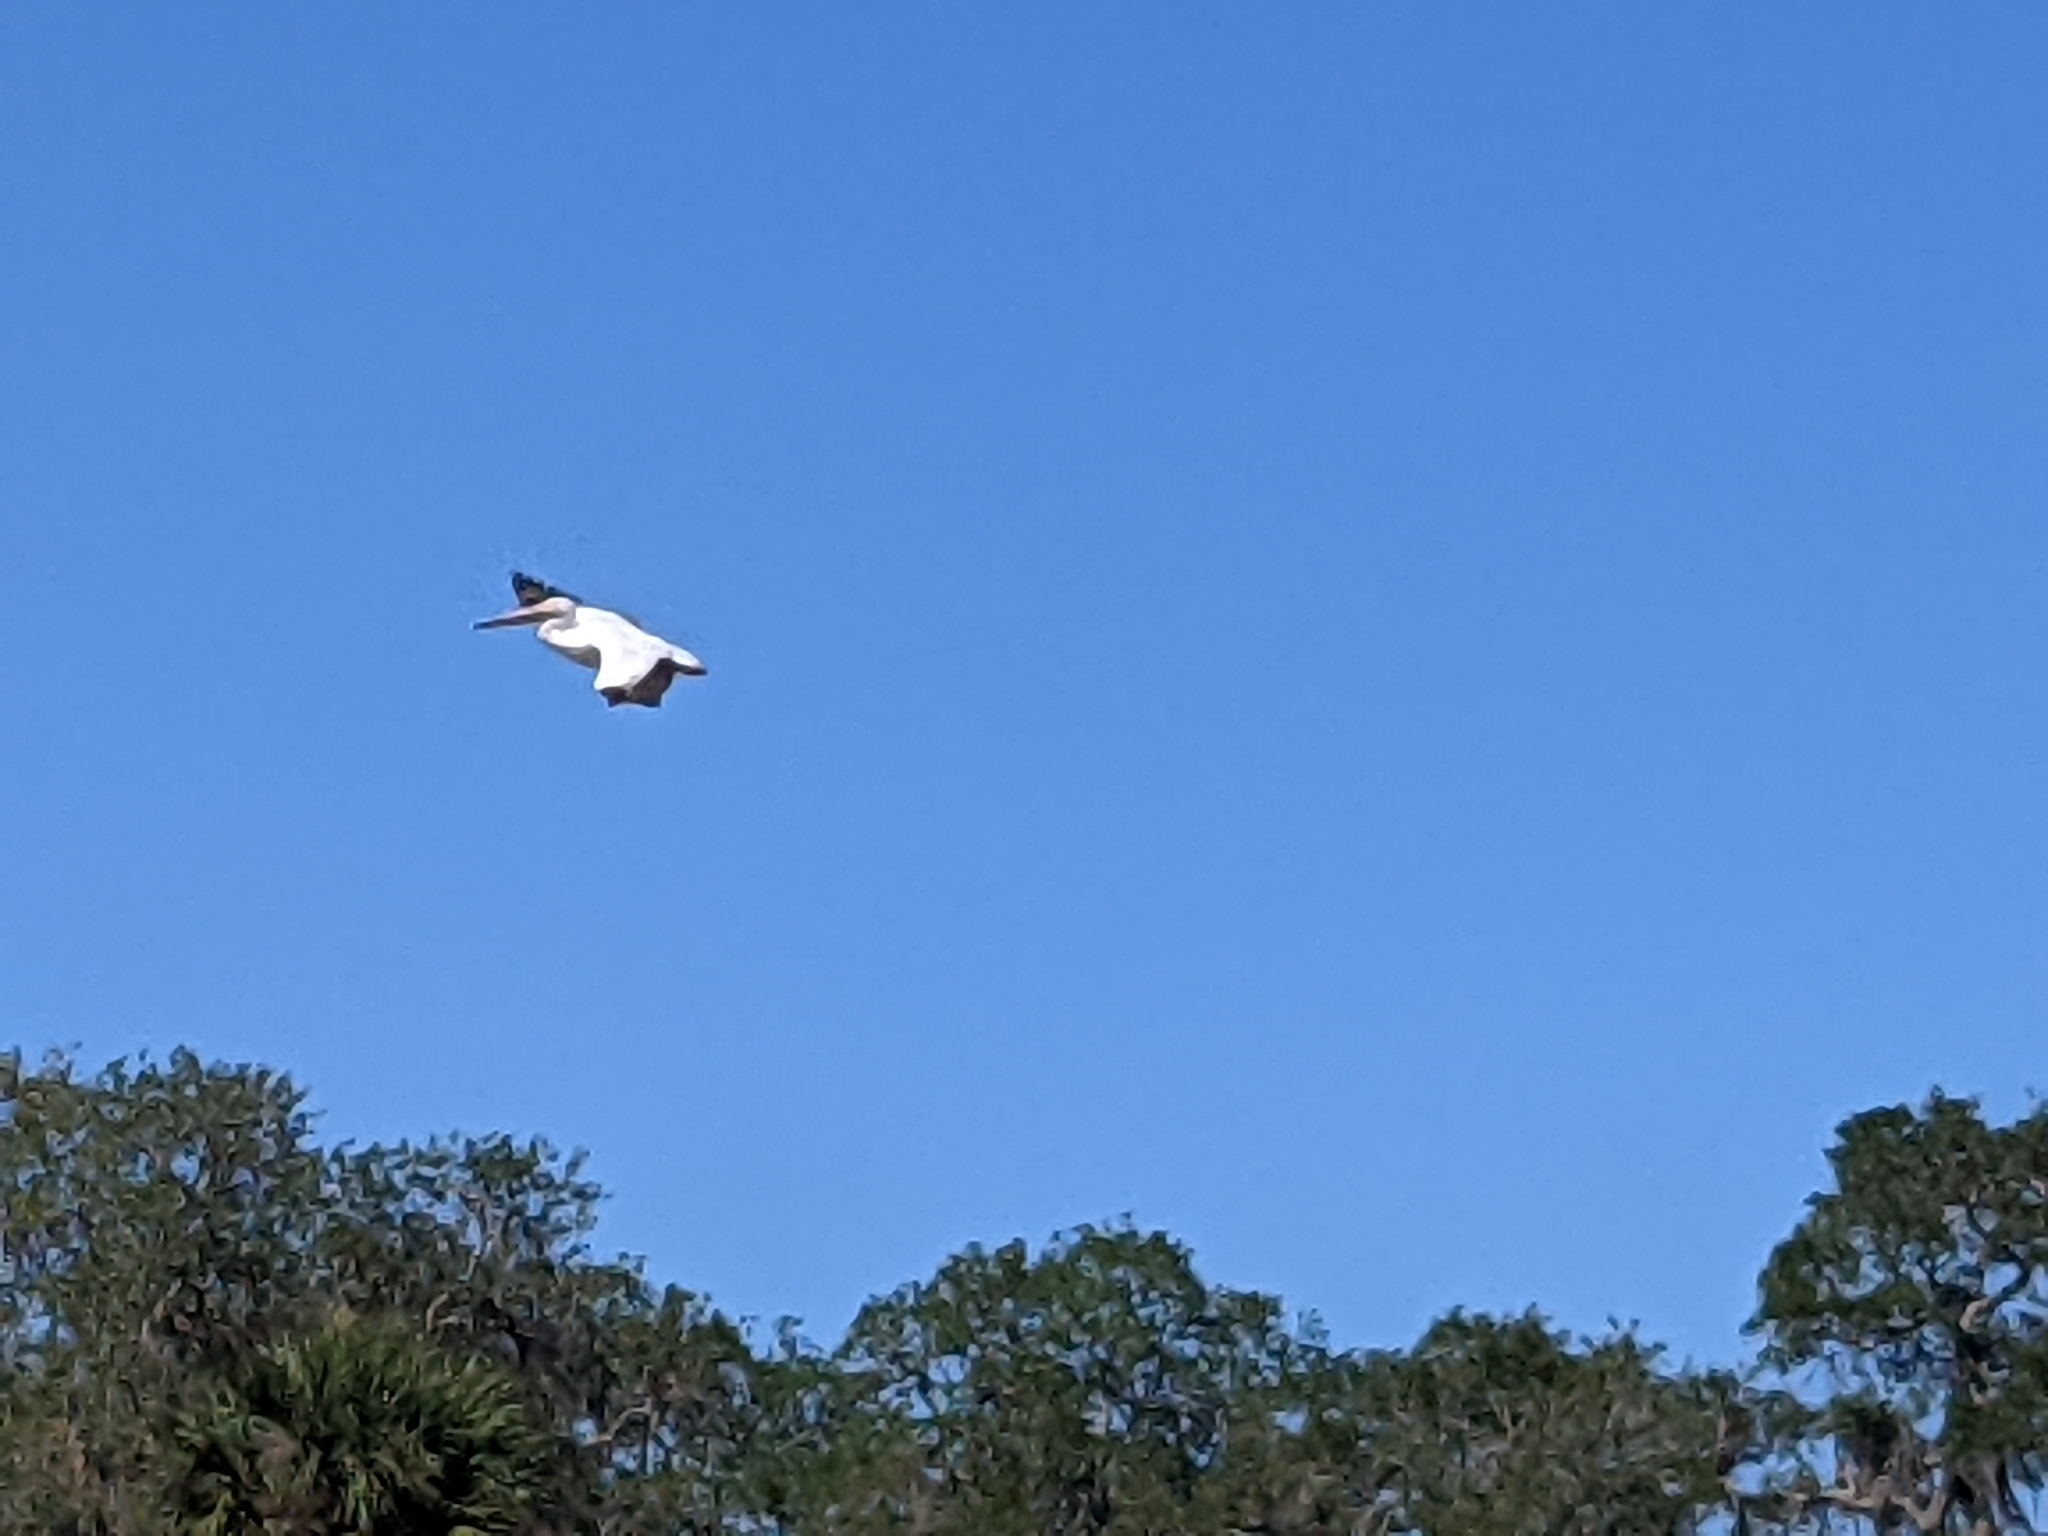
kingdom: Animalia
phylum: Chordata
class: Aves
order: Pelecaniformes
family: Pelecanidae
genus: Pelecanus
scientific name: Pelecanus erythrorhynchos
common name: American white pelican
